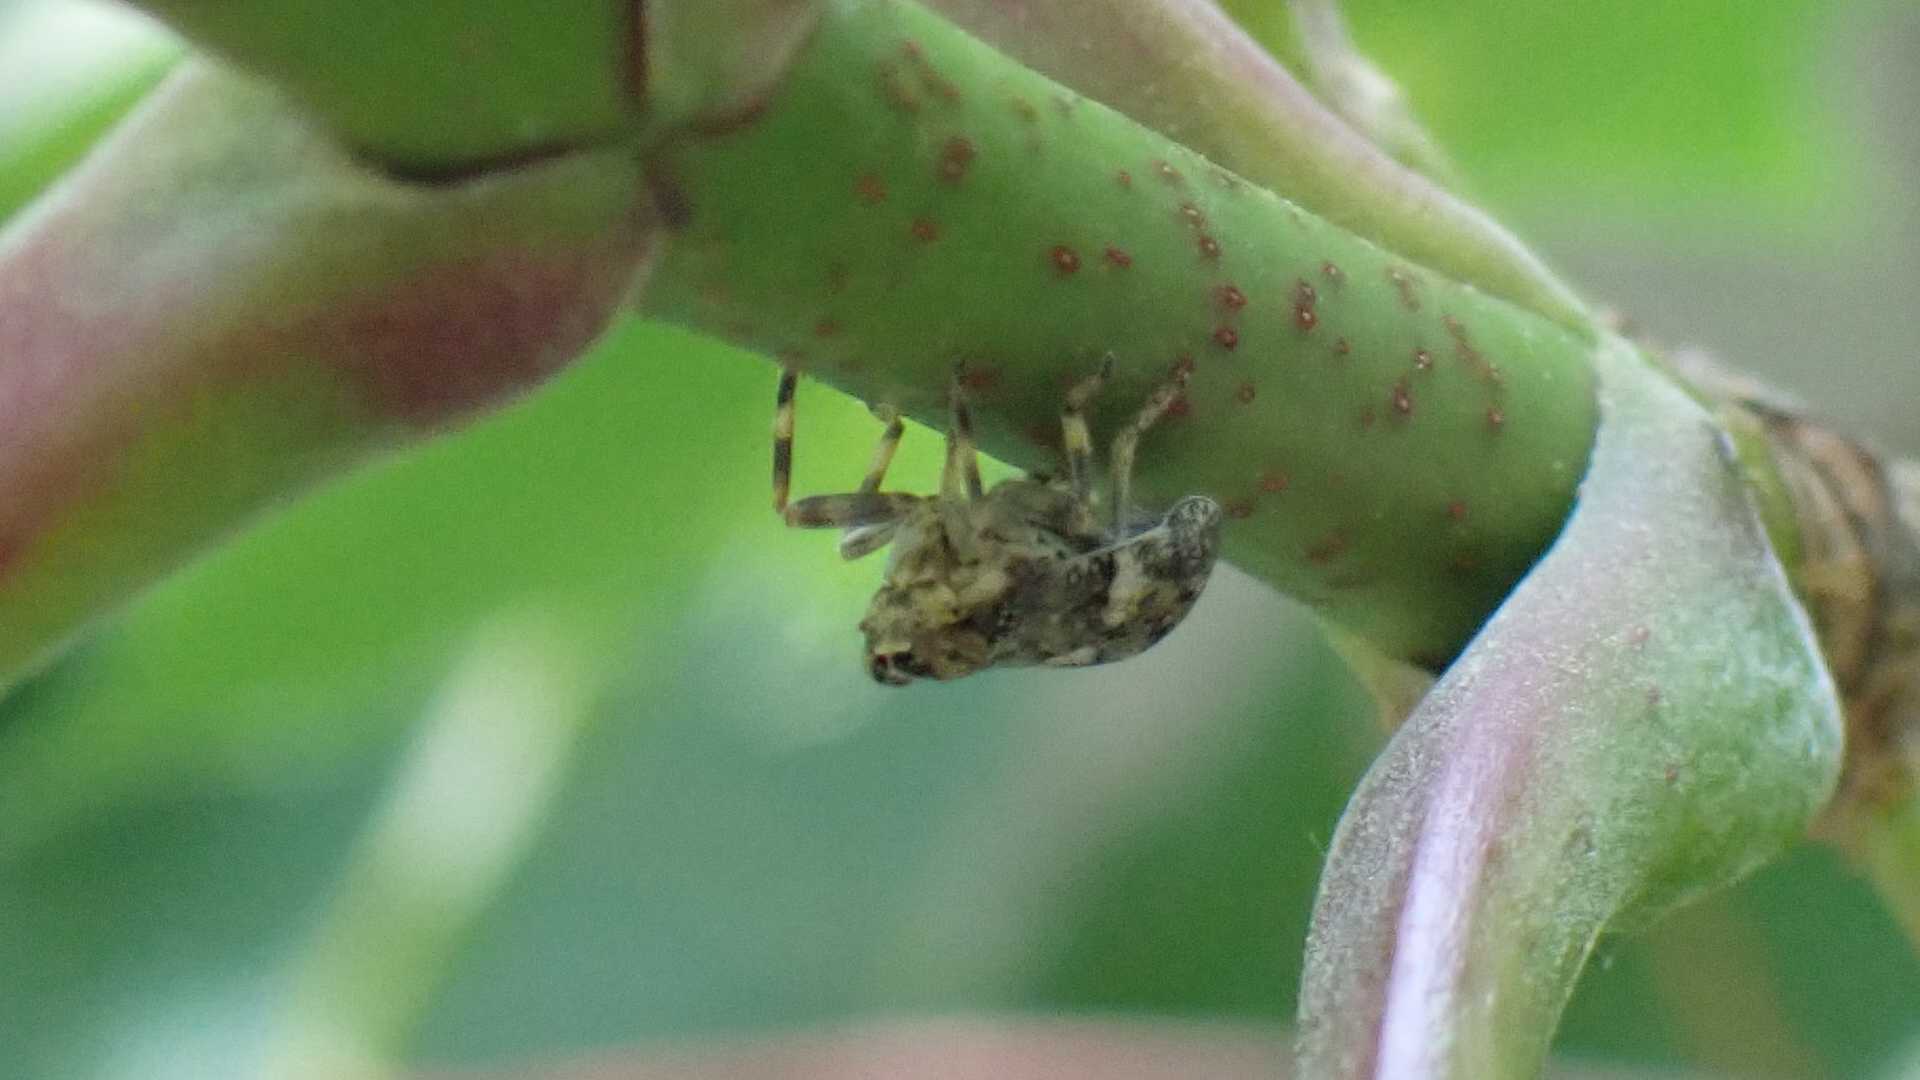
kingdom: Animalia
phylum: Arthropoda
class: Insecta
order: Hemiptera
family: Issidae
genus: Issus
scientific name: Issus coleoptratus
